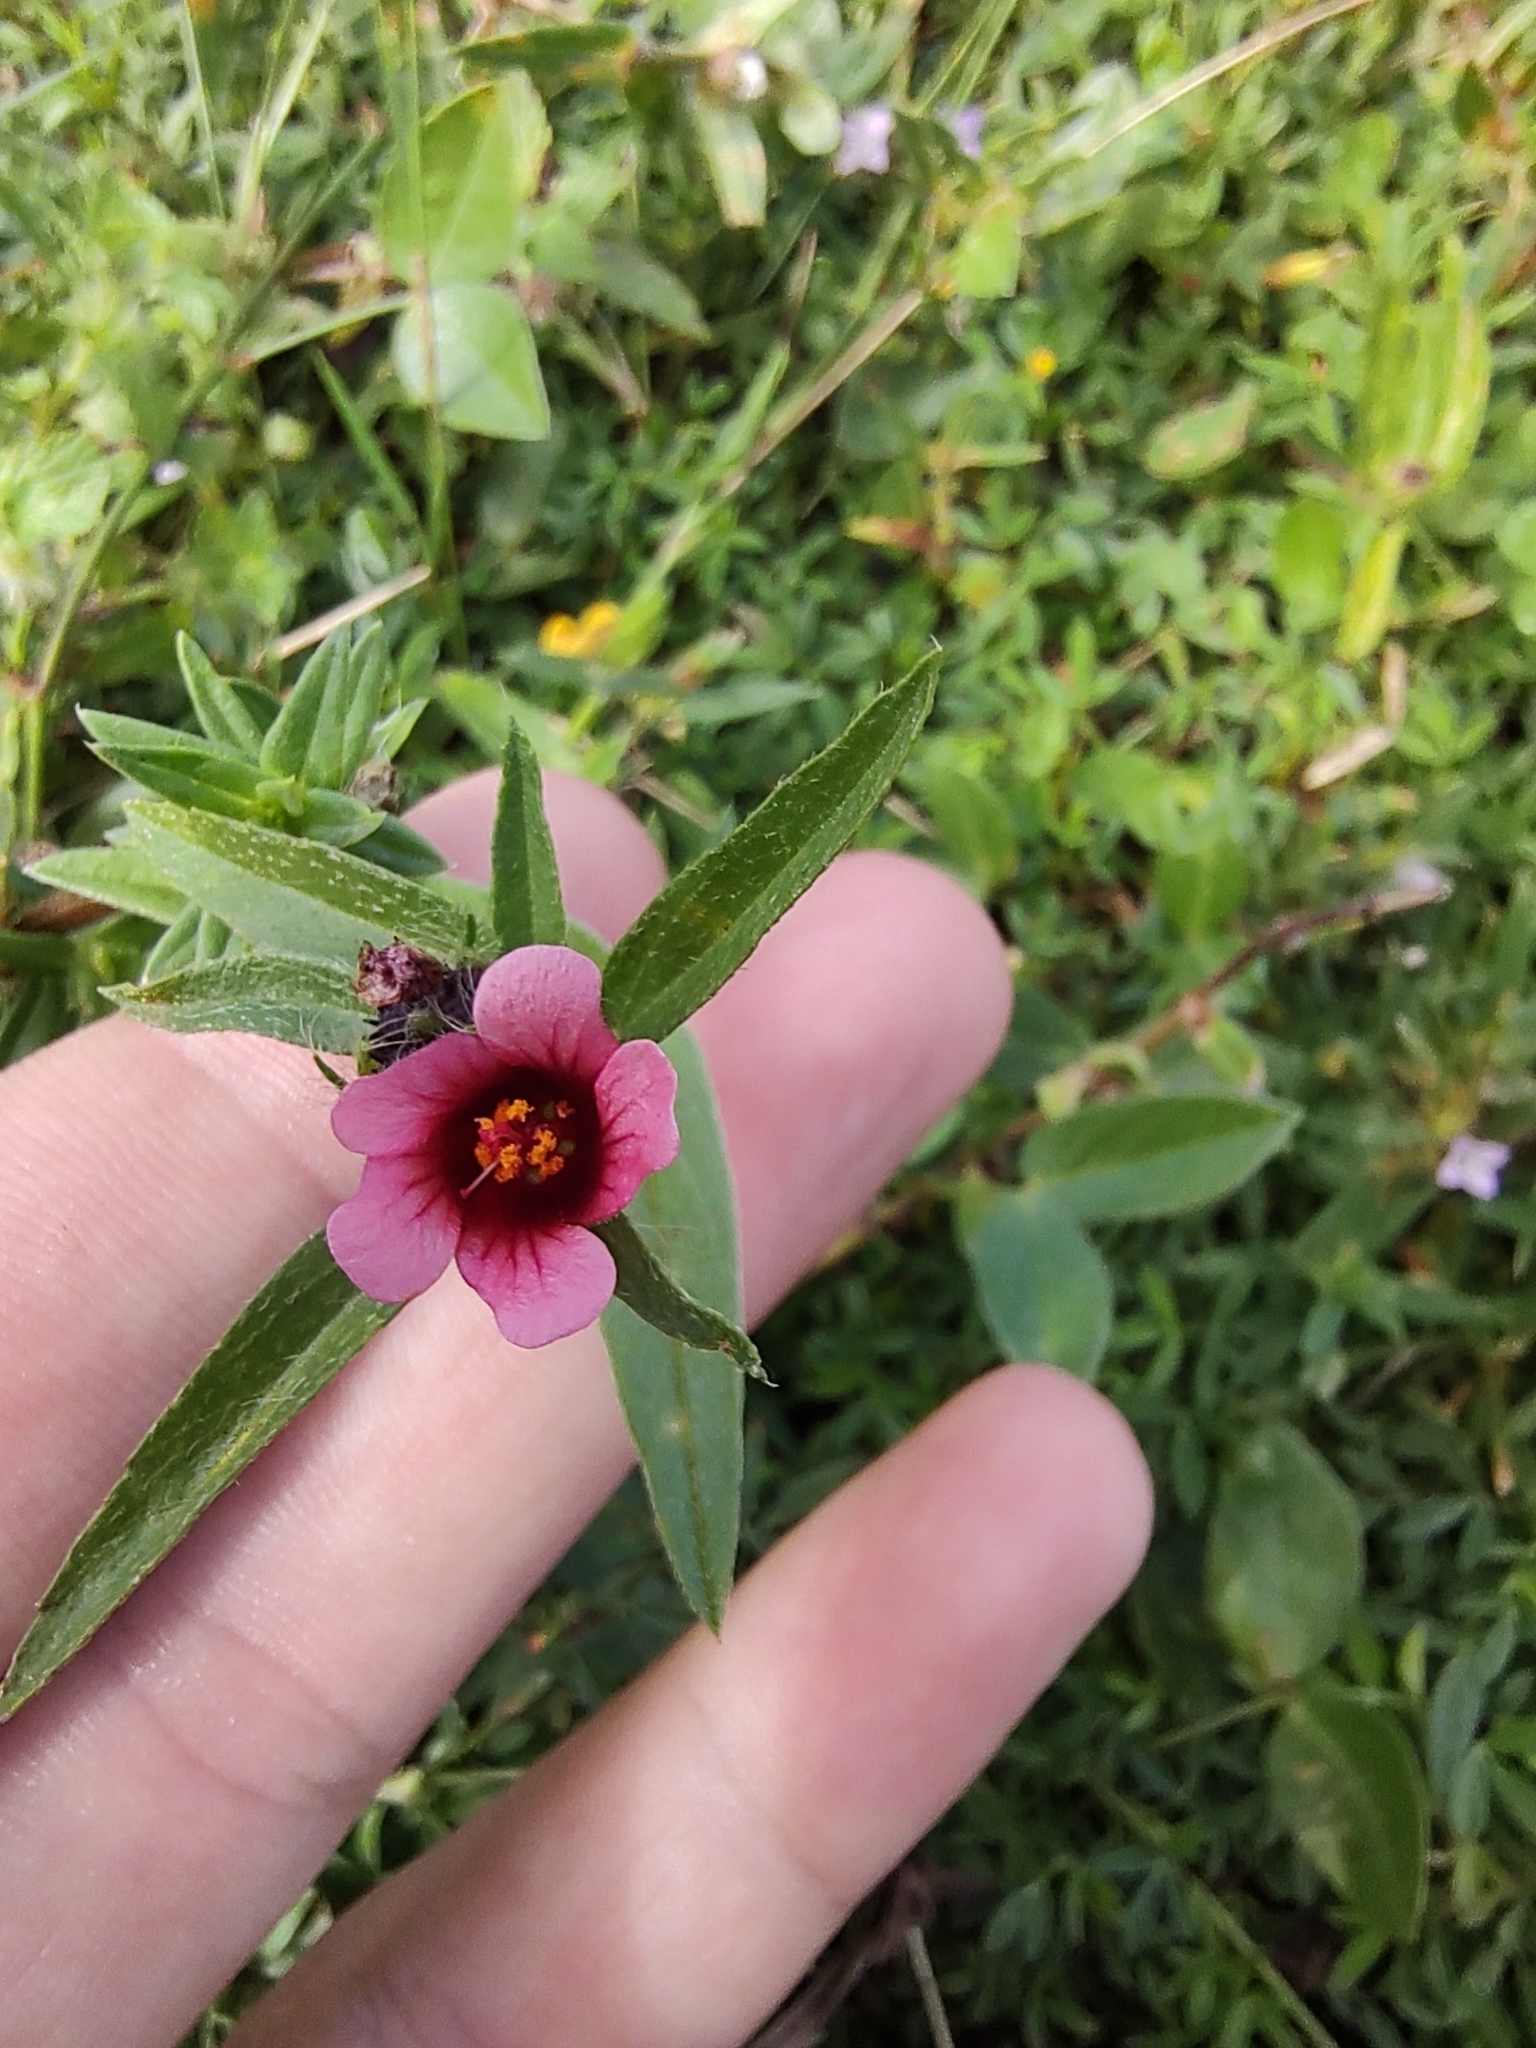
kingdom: Plantae
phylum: Tracheophyta
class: Magnoliopsida
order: Malvales
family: Malvaceae
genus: Sida
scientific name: Sida castanocarpa
